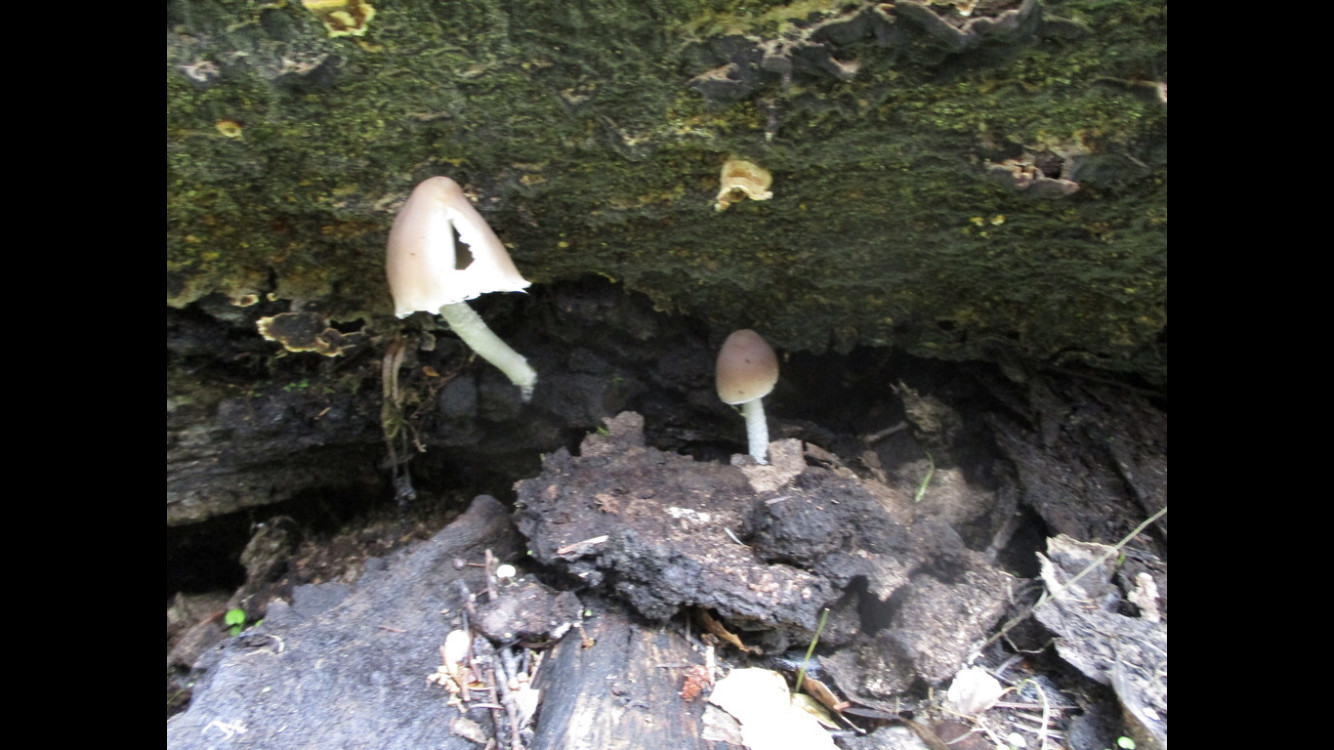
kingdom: Fungi
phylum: Basidiomycota
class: Agaricomycetes
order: Agaricales
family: Psathyrellaceae
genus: Psathyrella
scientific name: Psathyrella longipes
